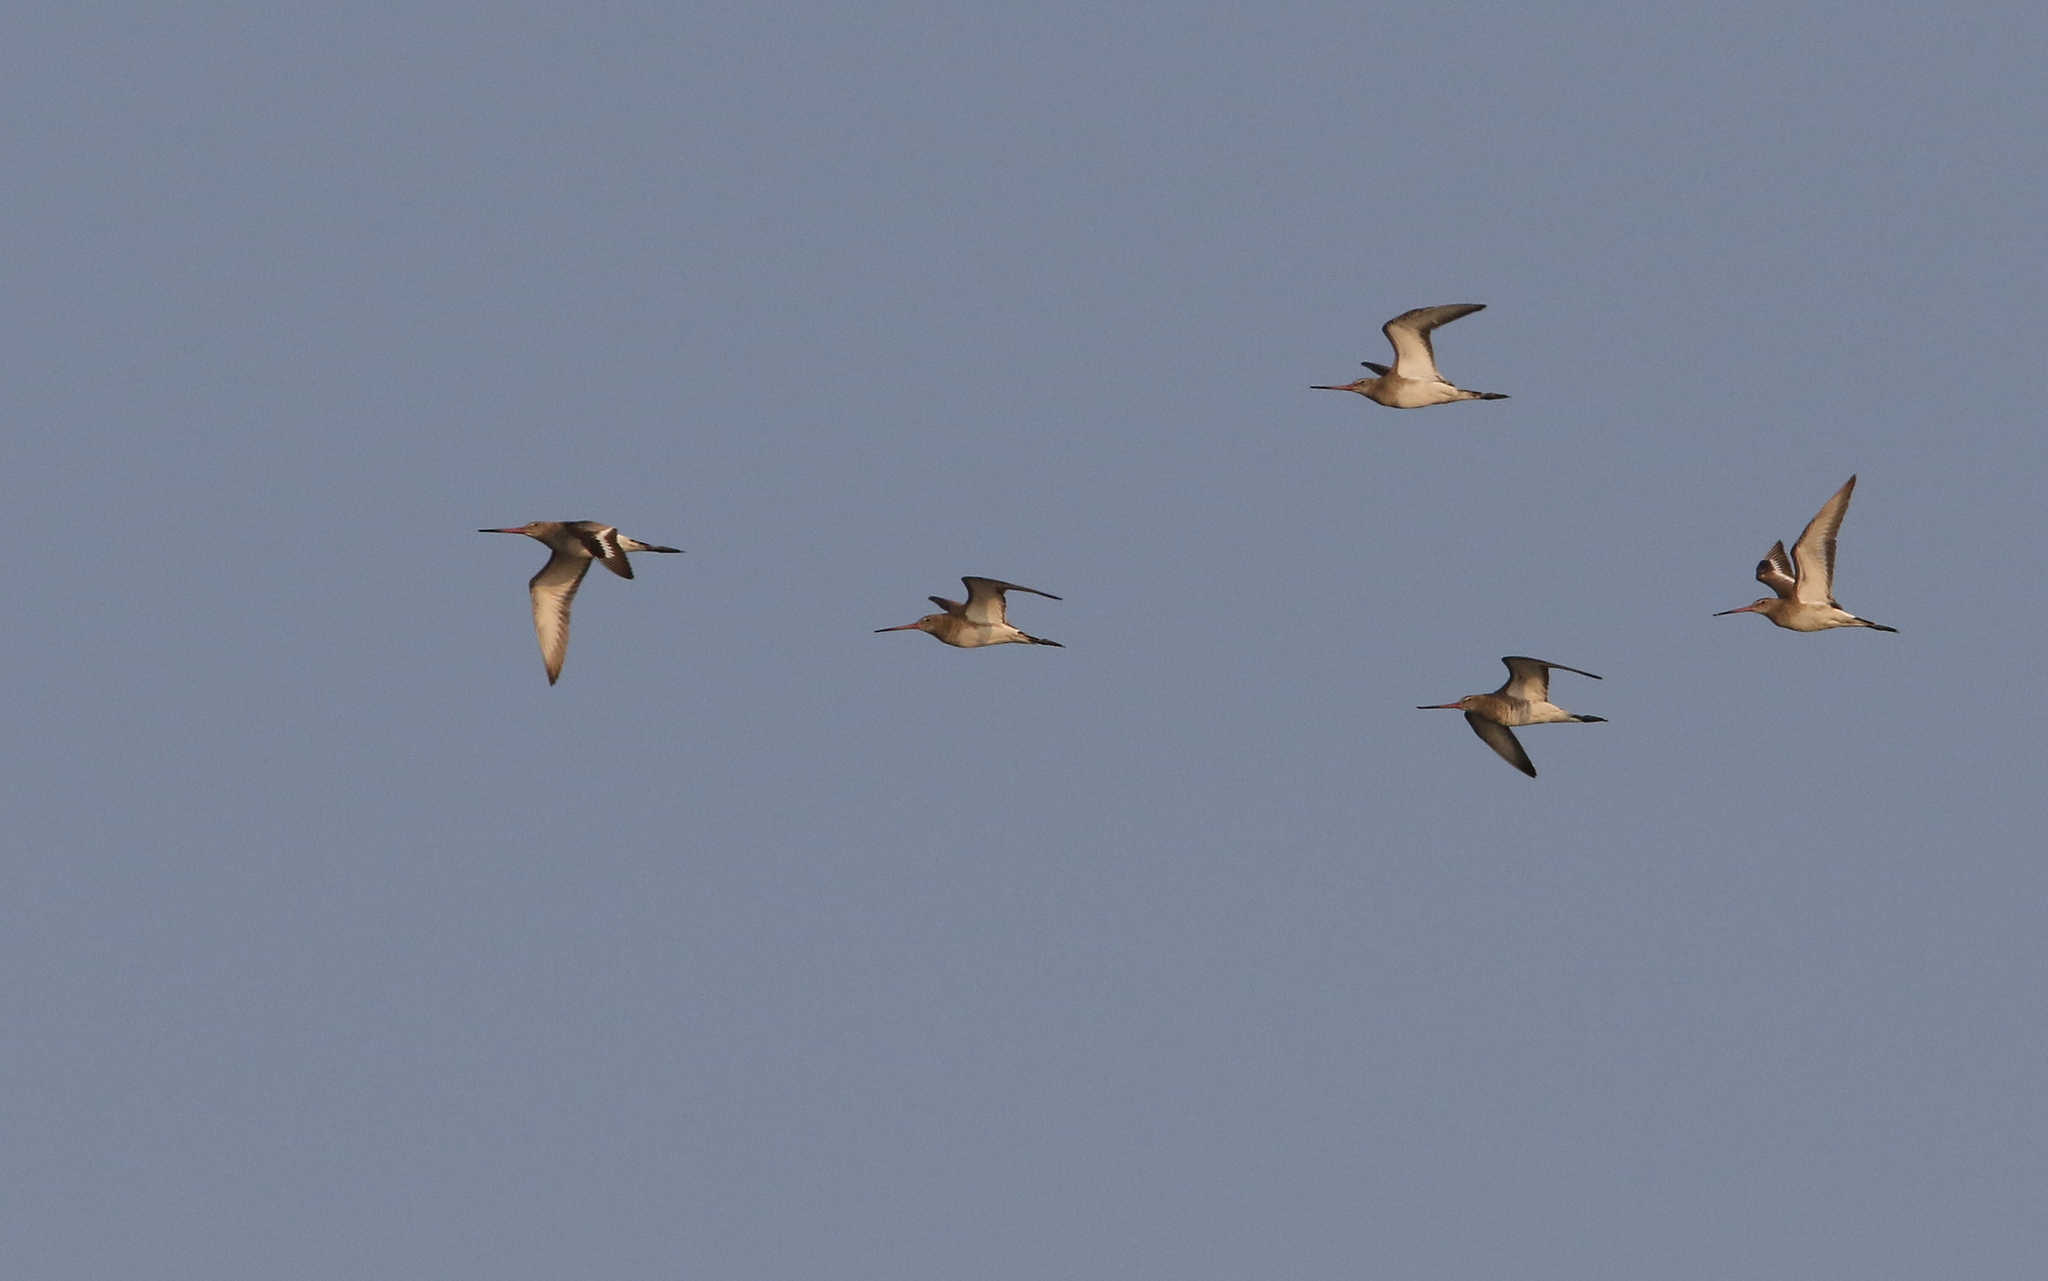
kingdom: Animalia
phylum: Chordata
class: Aves
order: Charadriiformes
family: Scolopacidae
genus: Limosa
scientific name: Limosa limosa
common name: Black-tailed godwit
